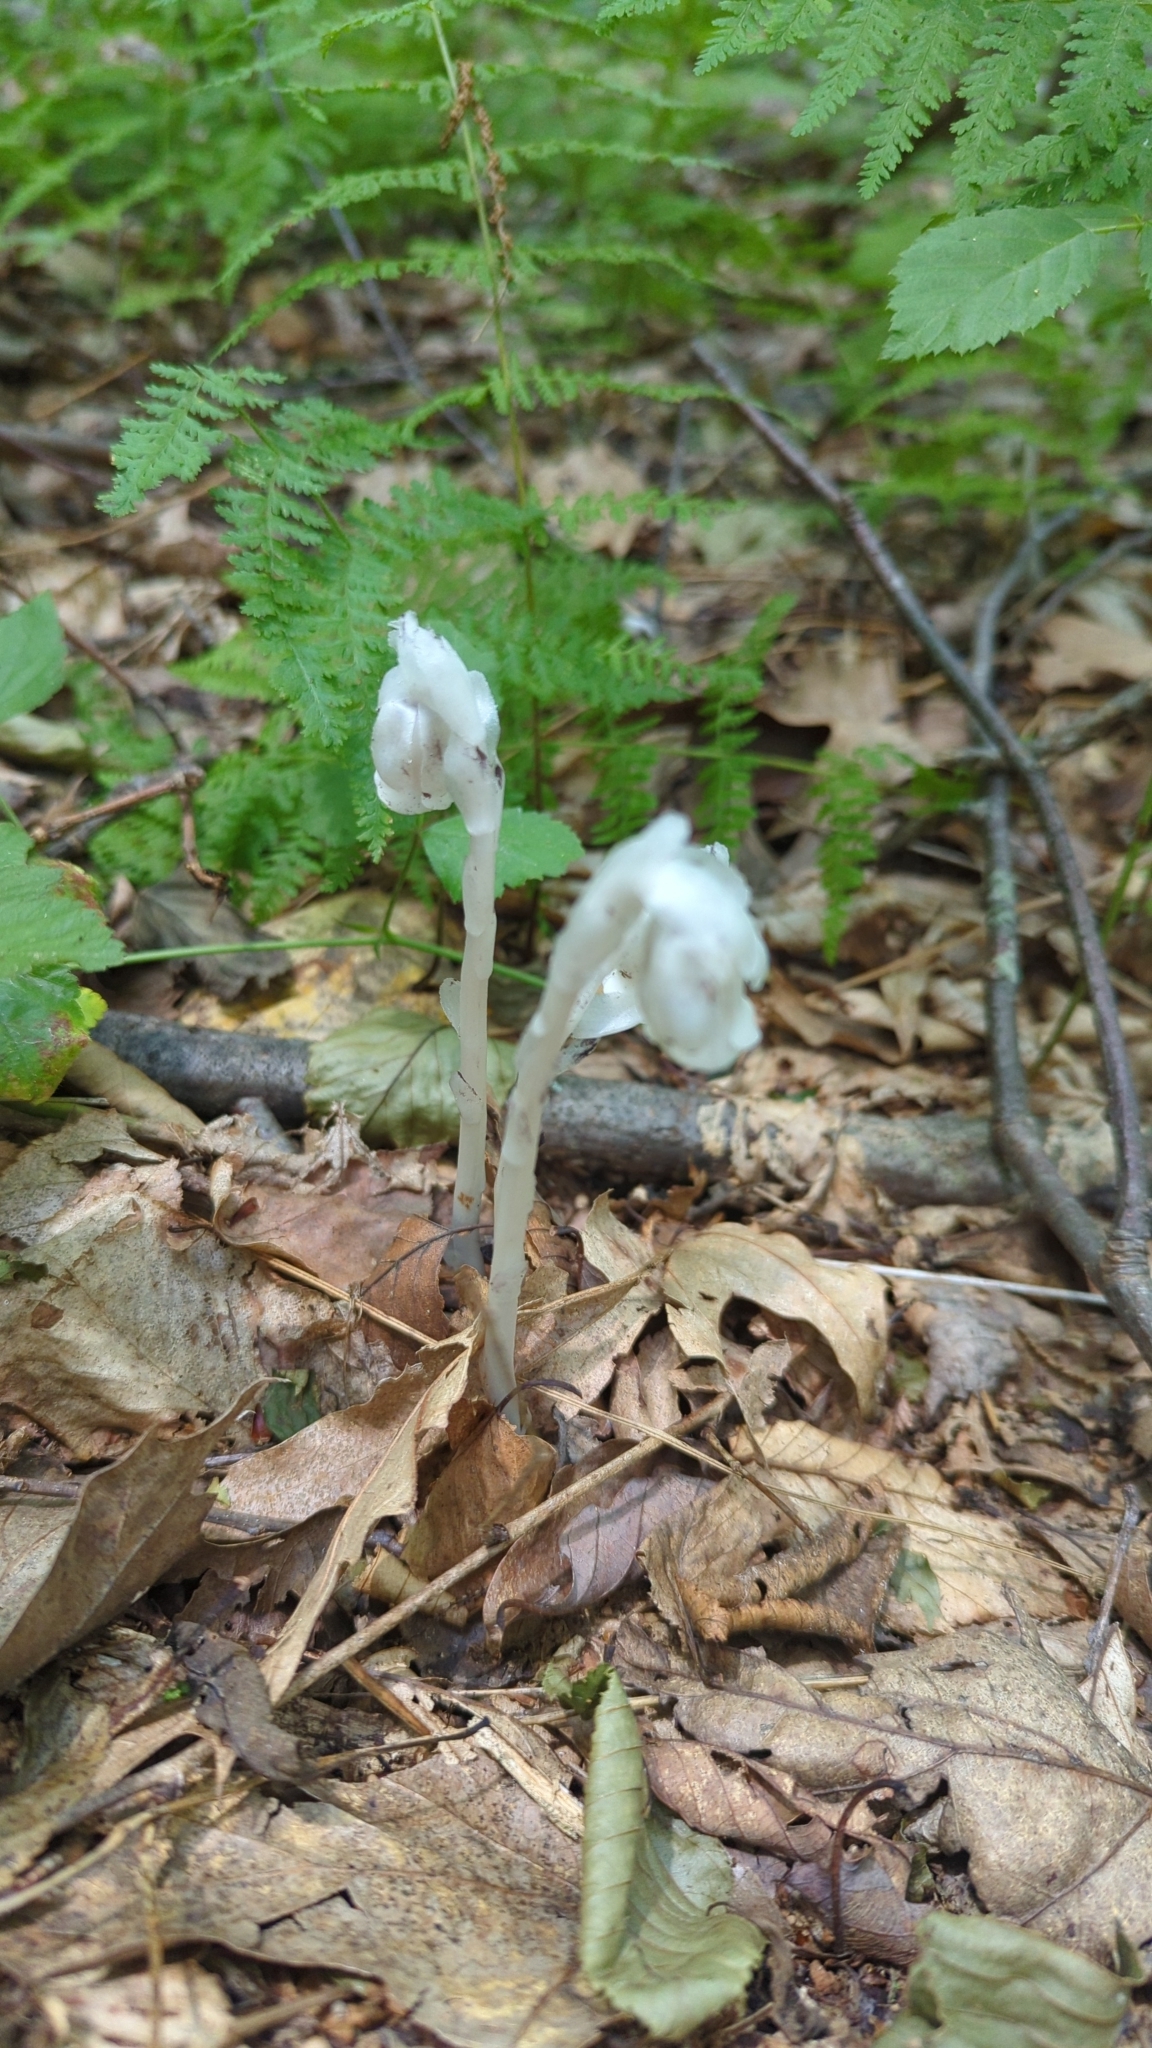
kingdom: Plantae
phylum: Tracheophyta
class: Magnoliopsida
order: Ericales
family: Ericaceae
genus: Monotropa
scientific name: Monotropa uniflora
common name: Convulsion root
